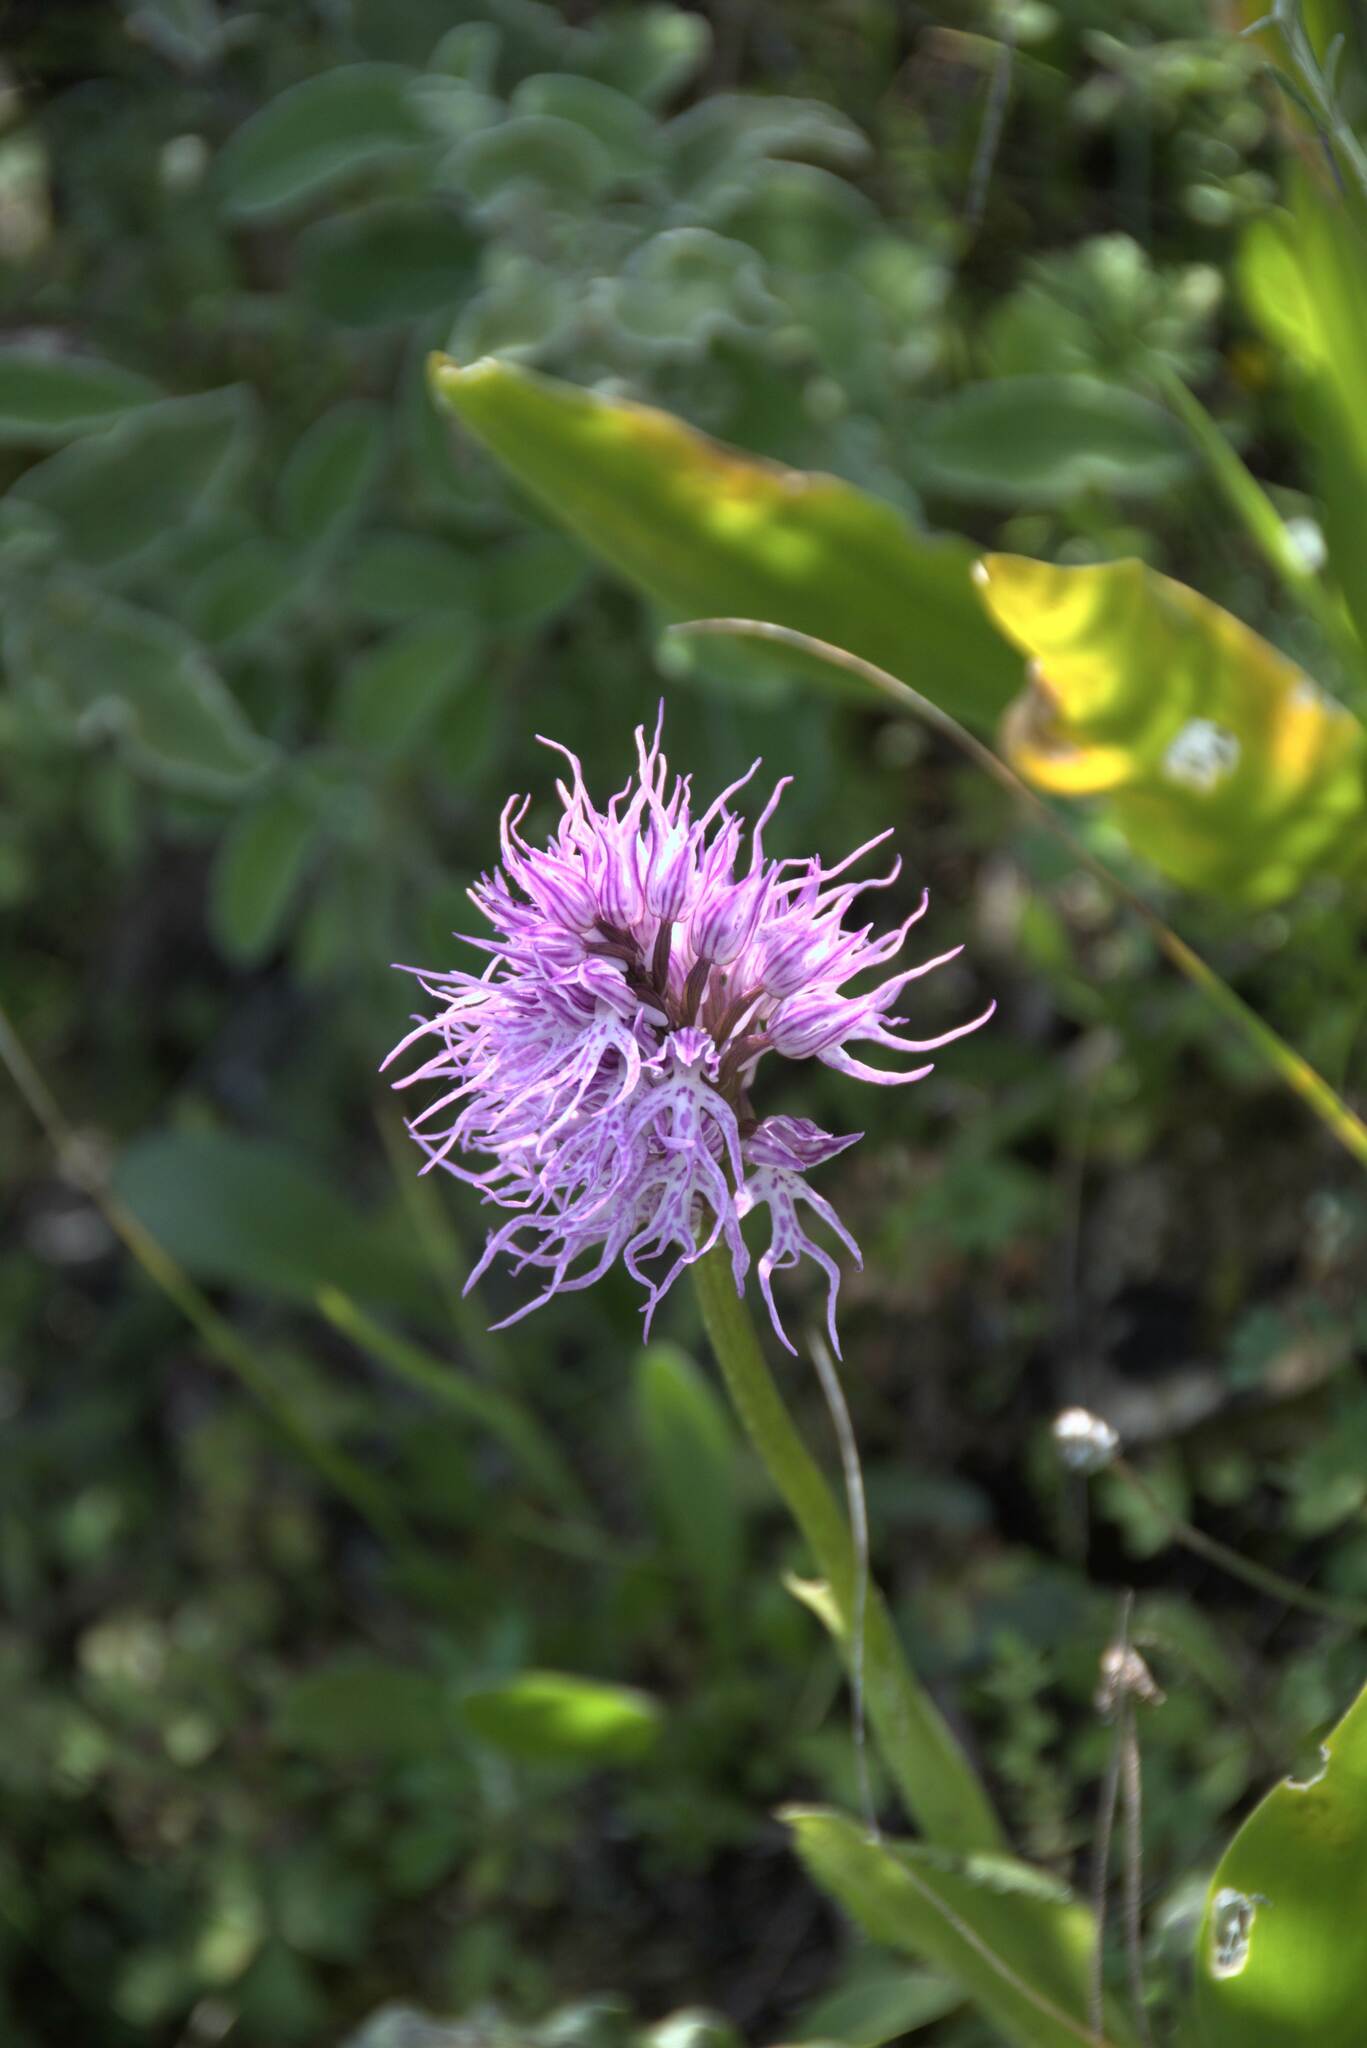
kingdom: Plantae
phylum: Tracheophyta
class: Liliopsida
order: Asparagales
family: Orchidaceae
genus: Orchis
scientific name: Orchis italica
